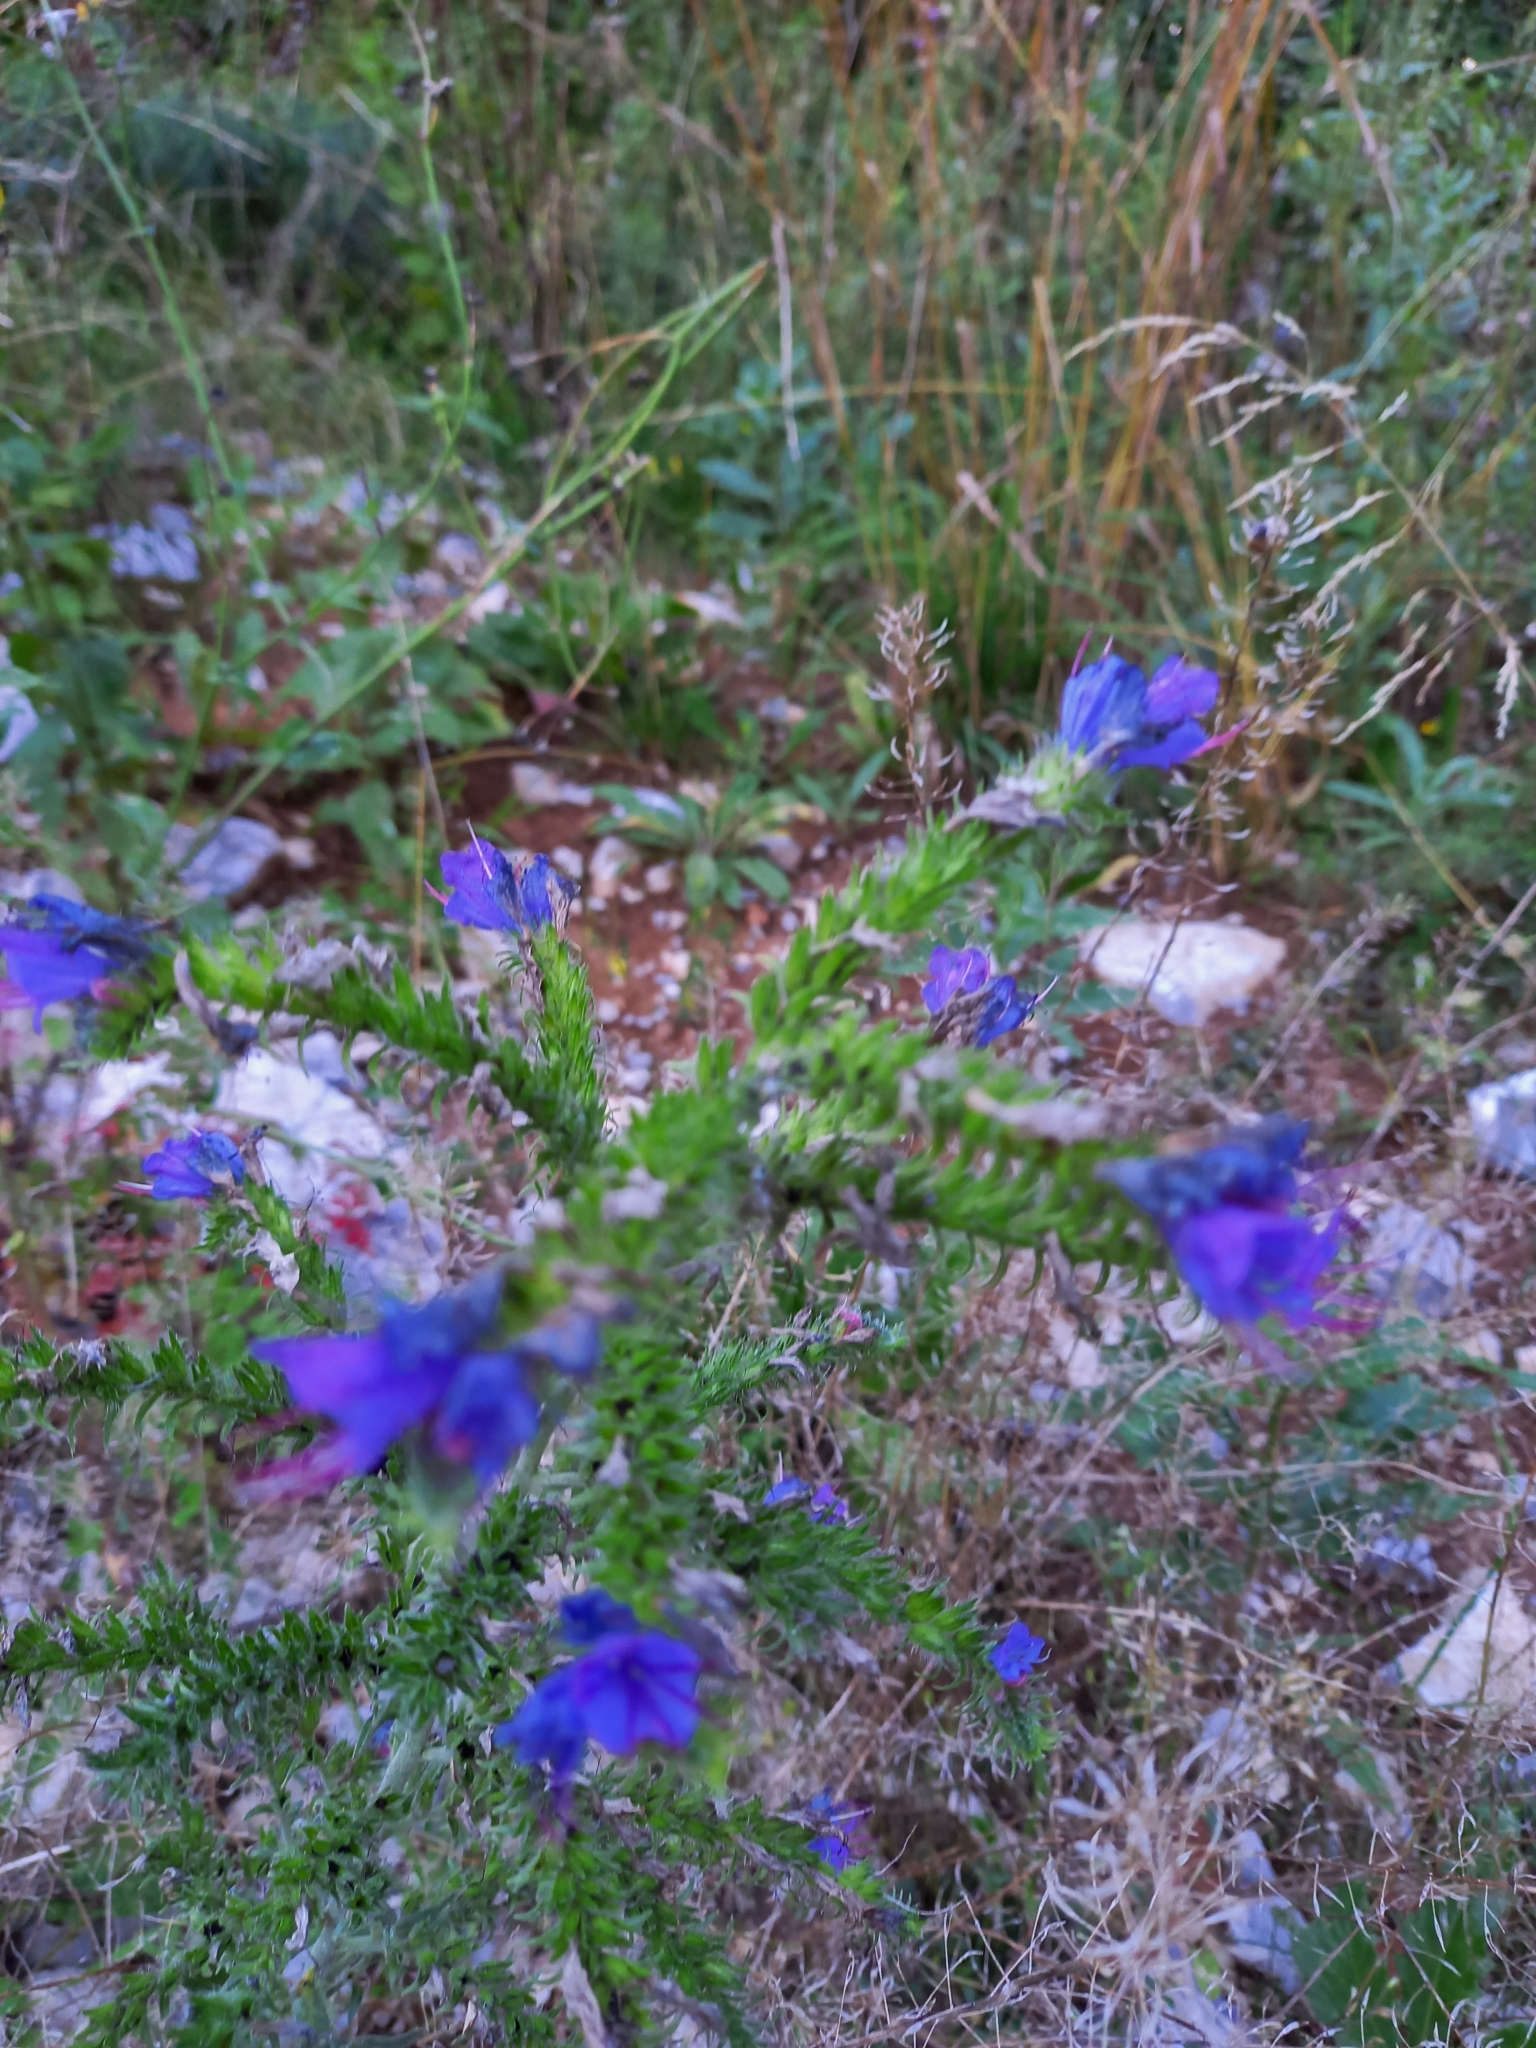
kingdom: Plantae
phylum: Tracheophyta
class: Magnoliopsida
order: Boraginales
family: Boraginaceae
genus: Echium
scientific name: Echium vulgare
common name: Common viper's bugloss
